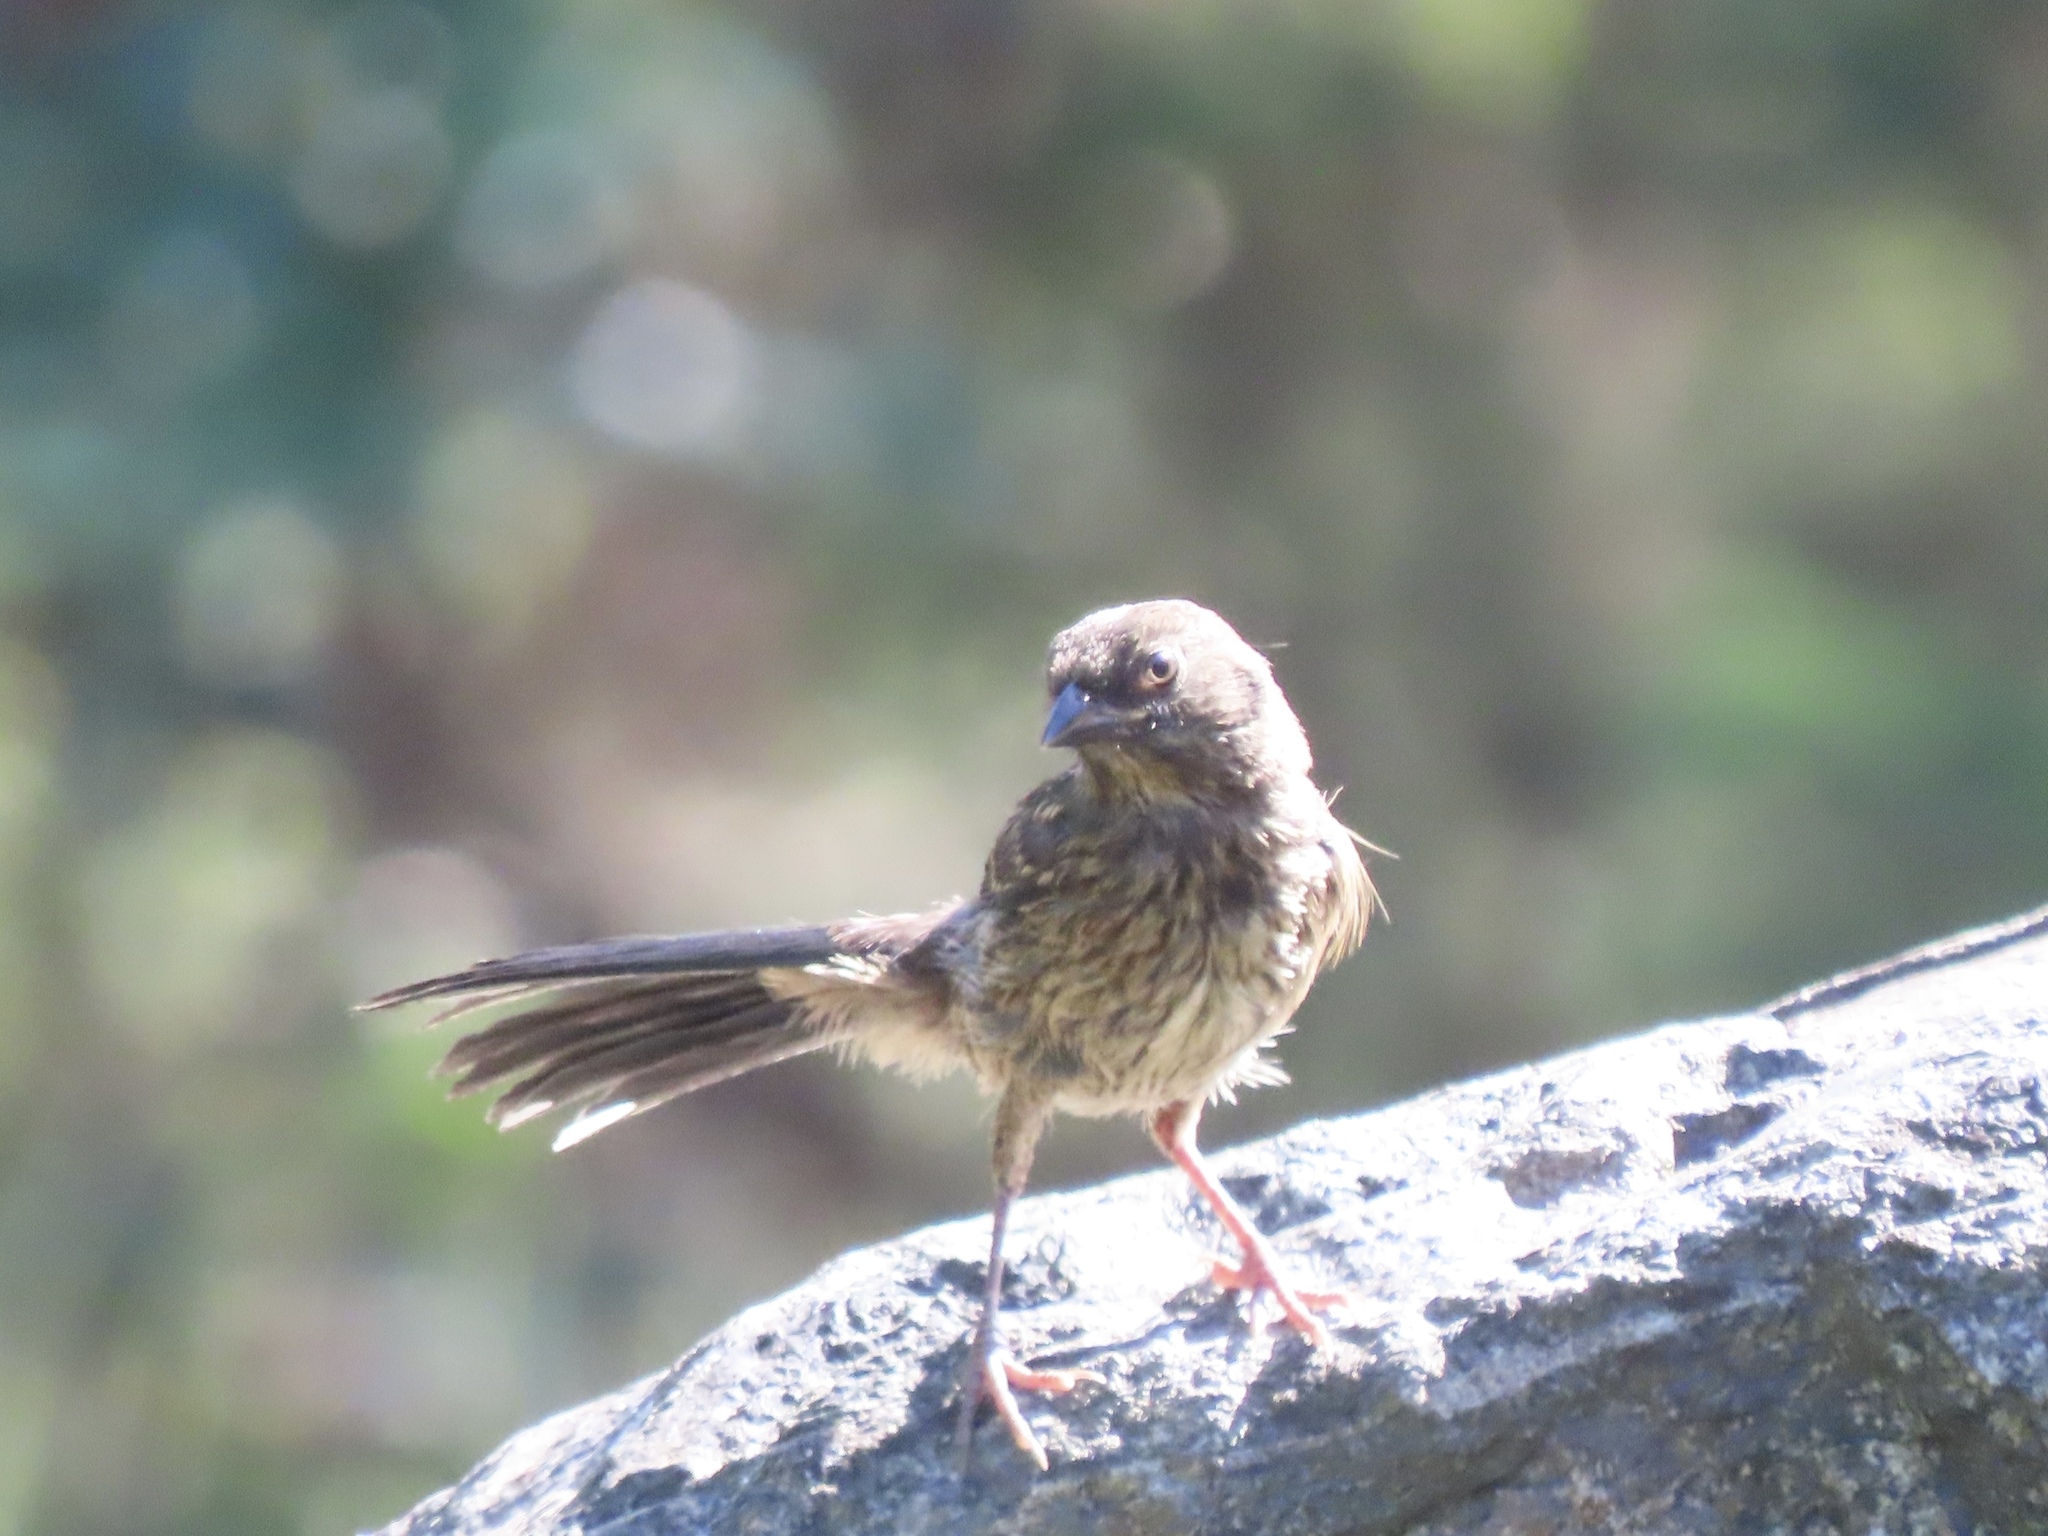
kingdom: Animalia
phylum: Chordata
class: Aves
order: Passeriformes
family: Passerellidae
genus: Pipilo
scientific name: Pipilo maculatus
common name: Spotted towhee
